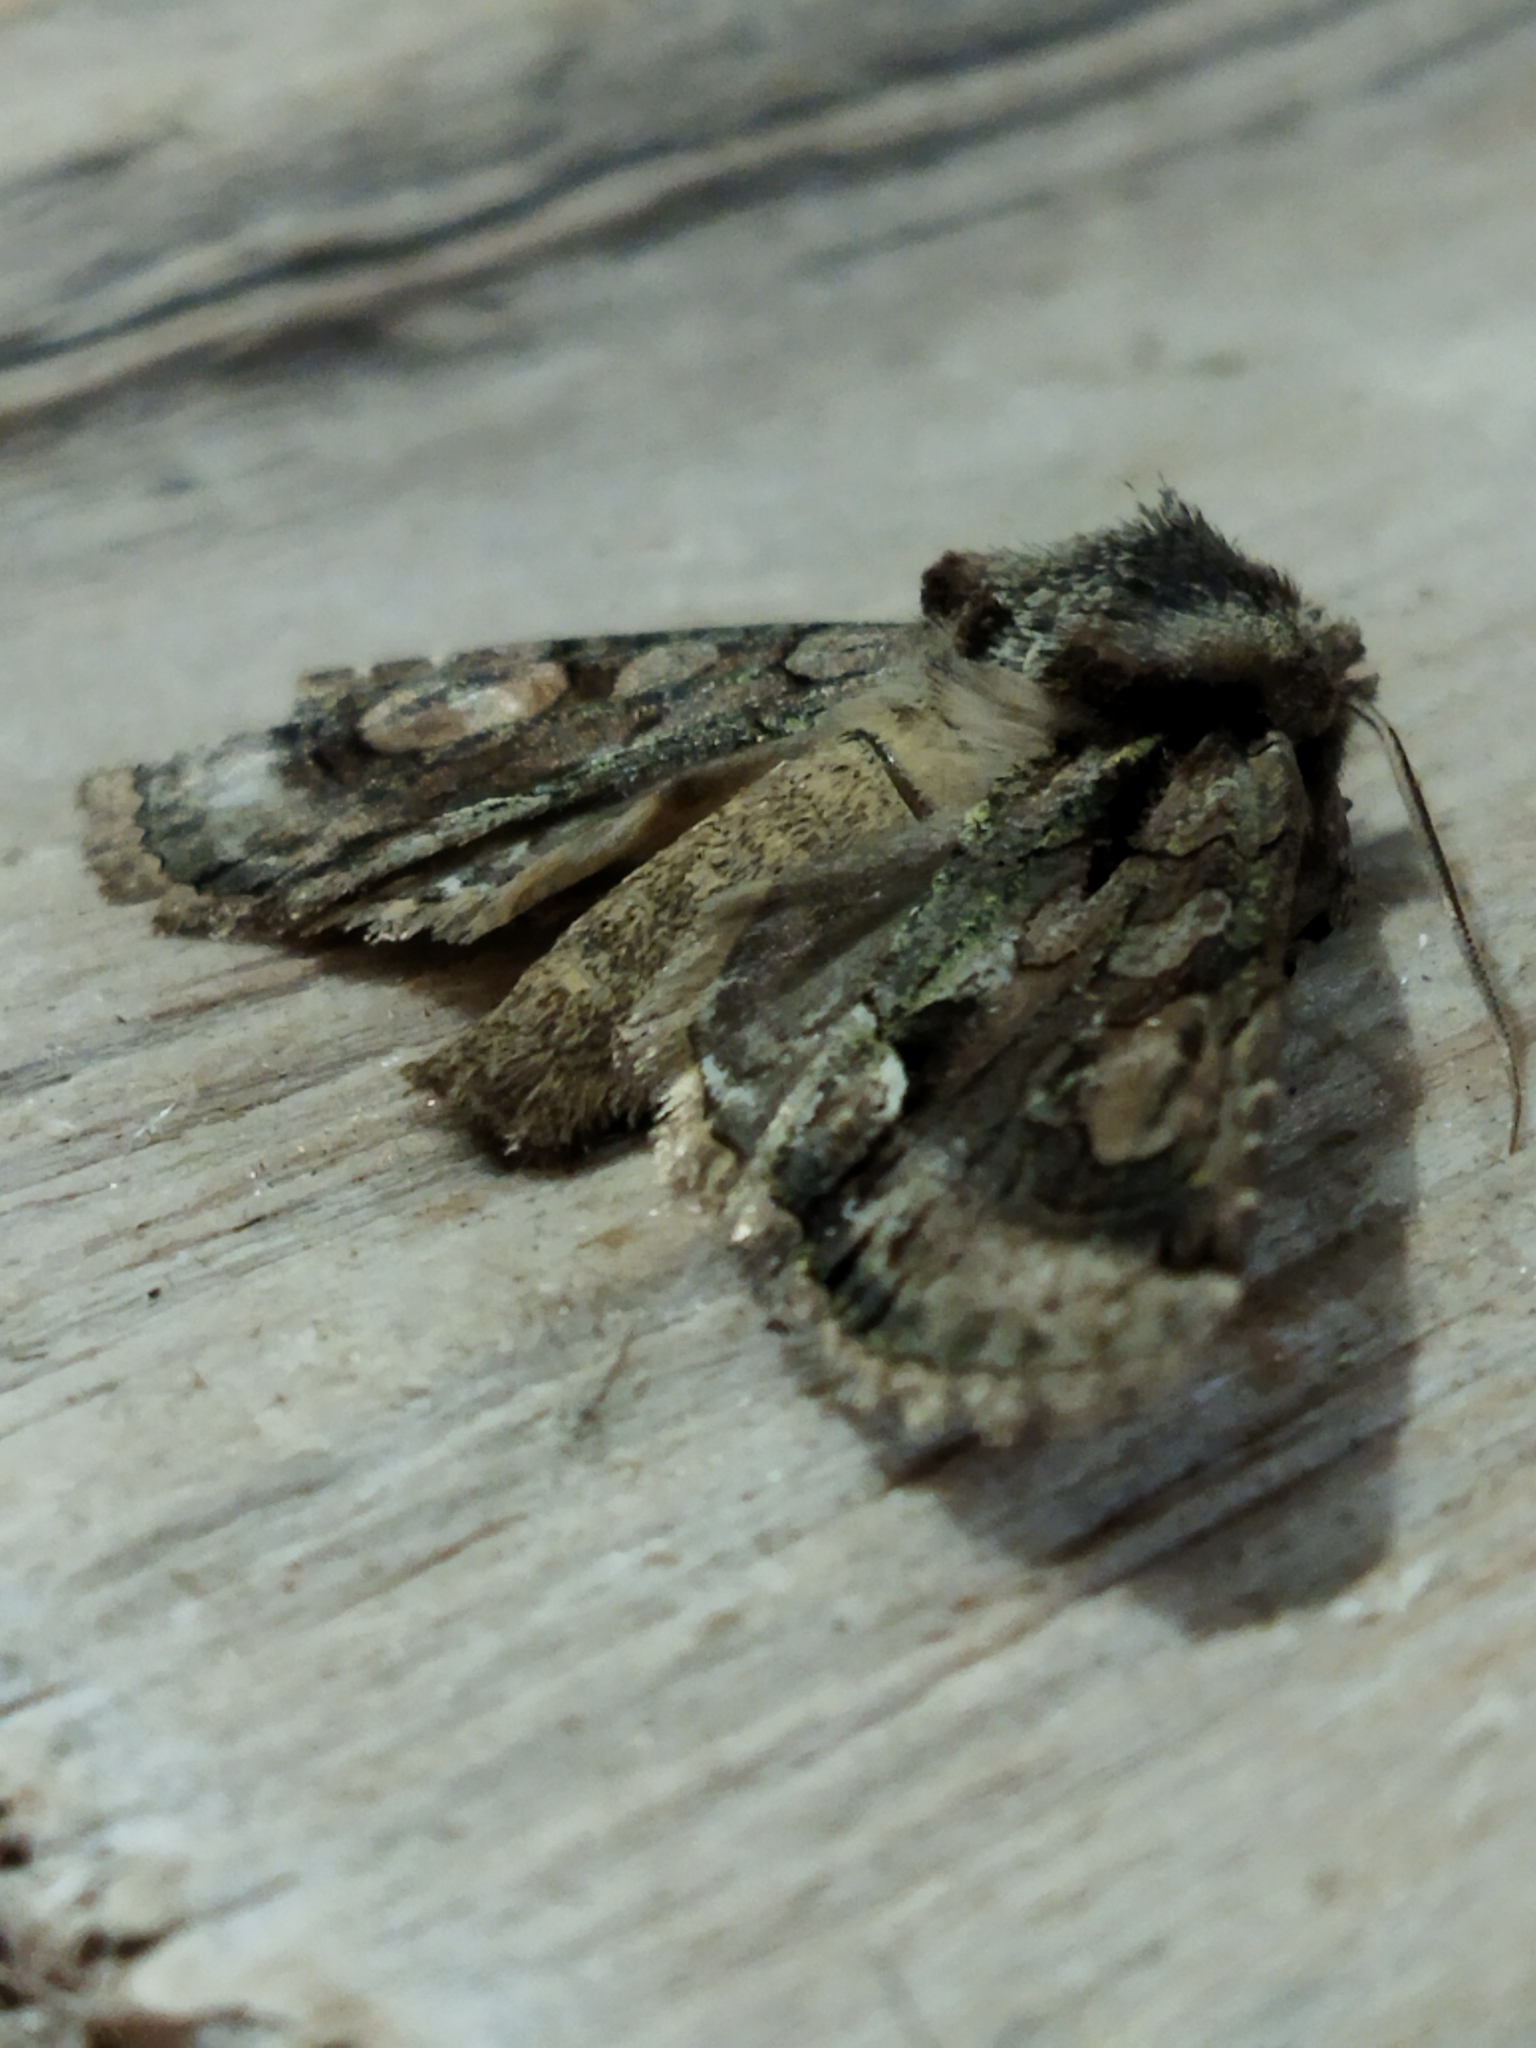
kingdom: Animalia
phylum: Arthropoda
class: Insecta
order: Lepidoptera
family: Noctuidae
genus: Allophyes
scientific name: Allophyes oxyacanthae
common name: Green-brindled crescent
